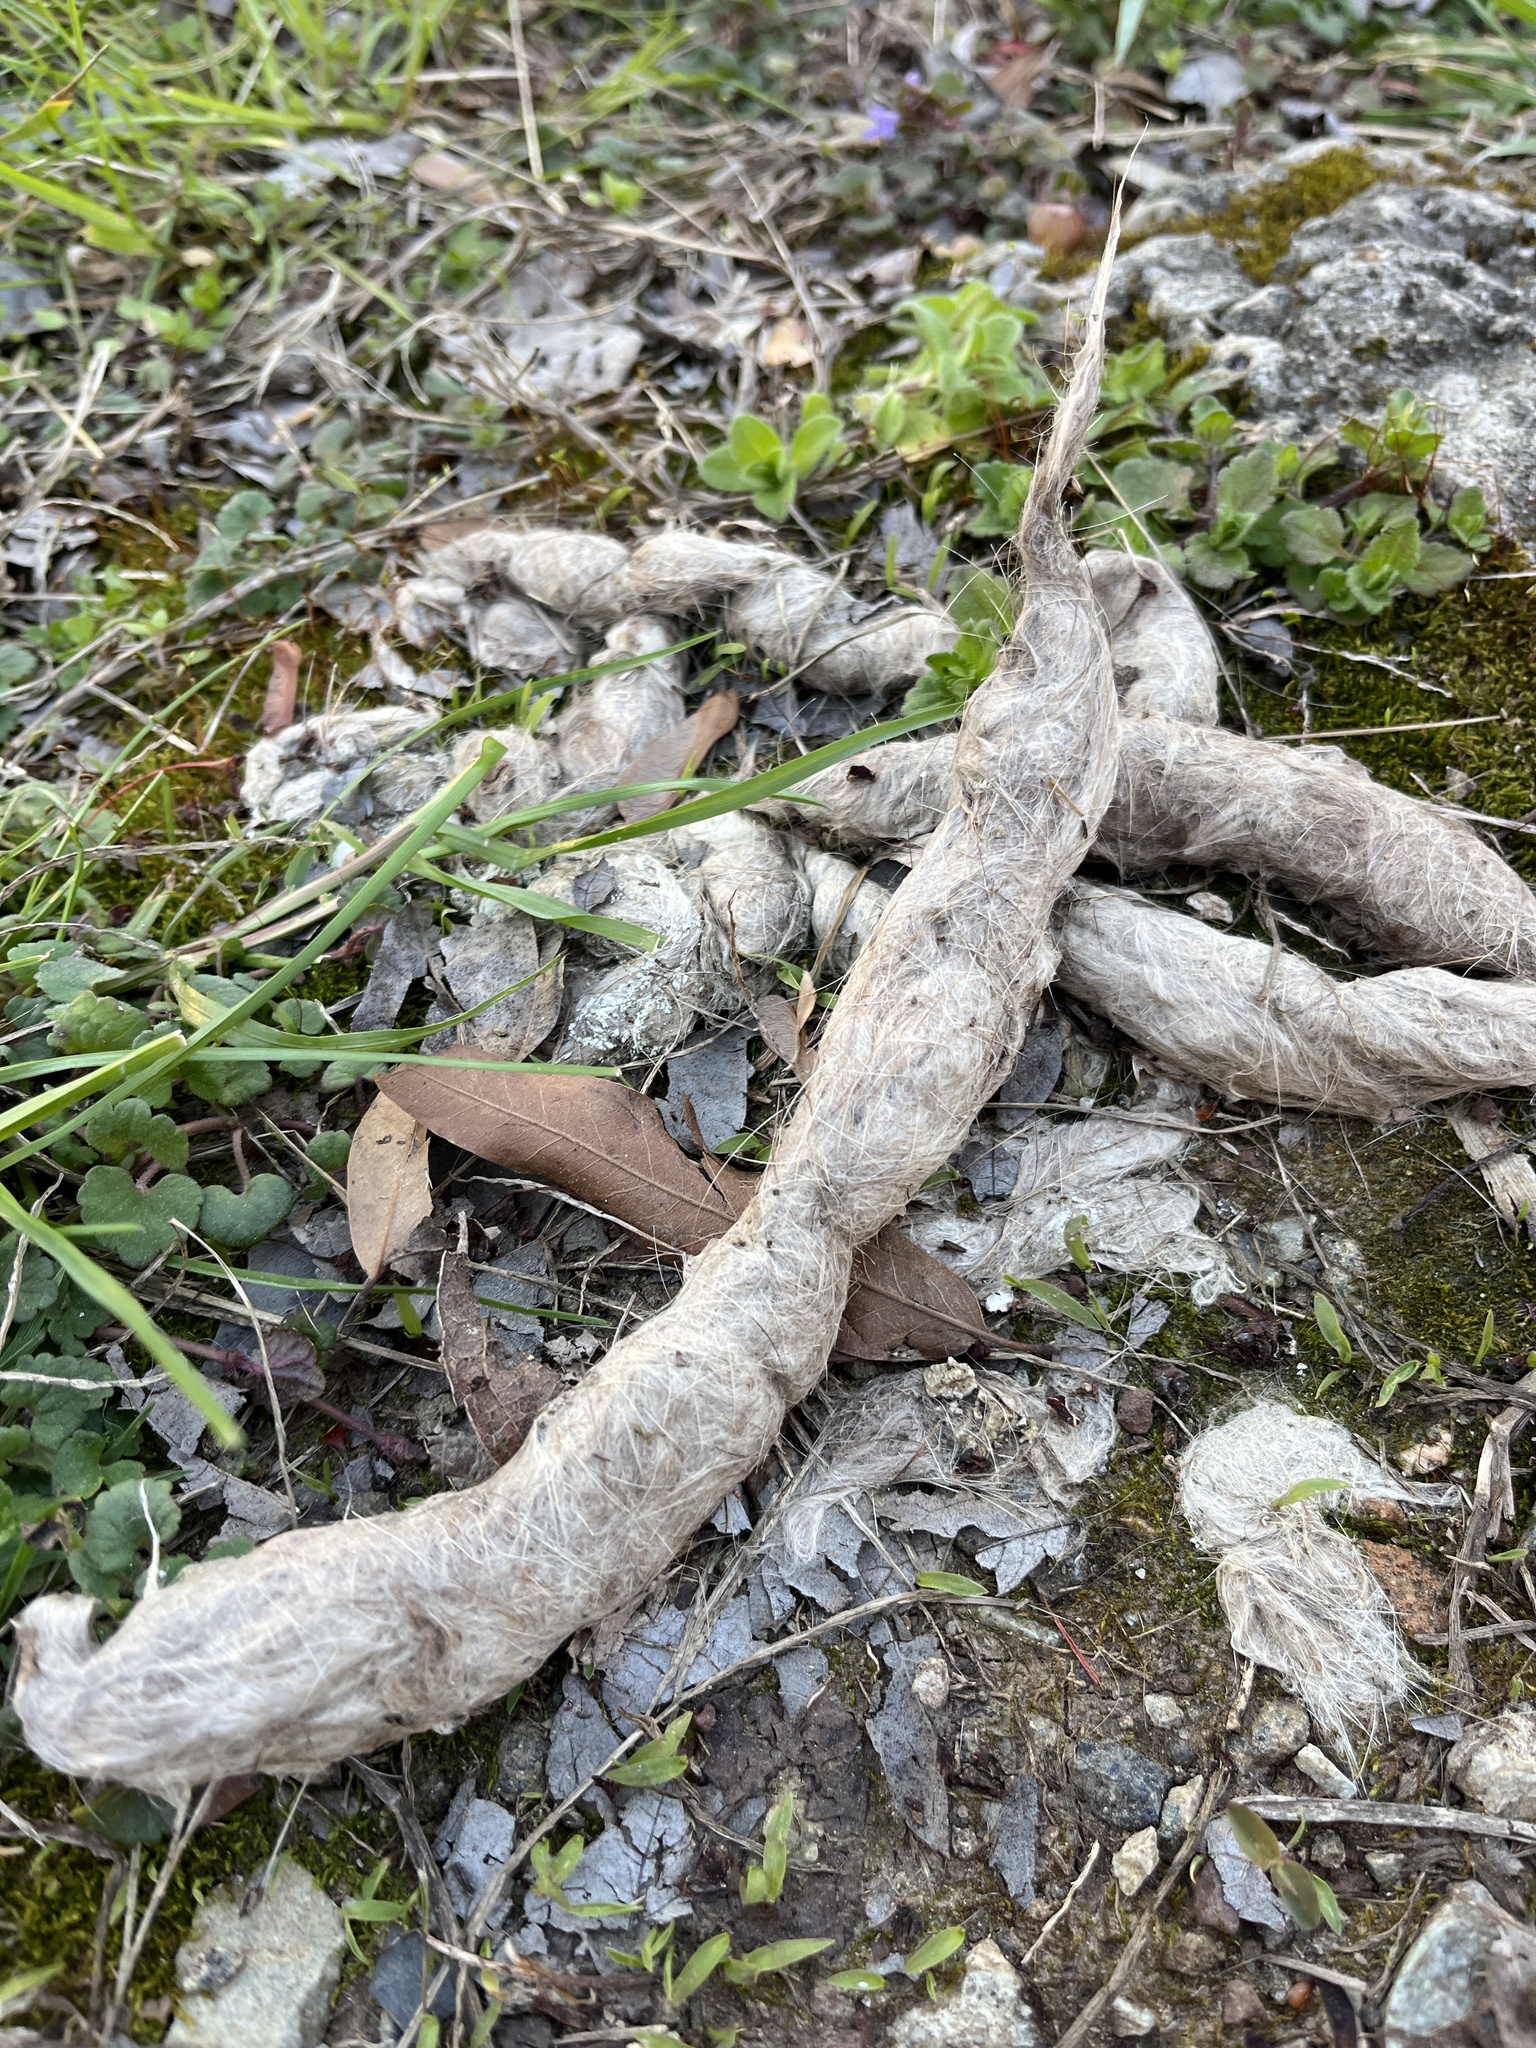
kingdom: Animalia
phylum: Chordata
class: Mammalia
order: Carnivora
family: Canidae
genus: Canis
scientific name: Canis latrans
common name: Coyote
